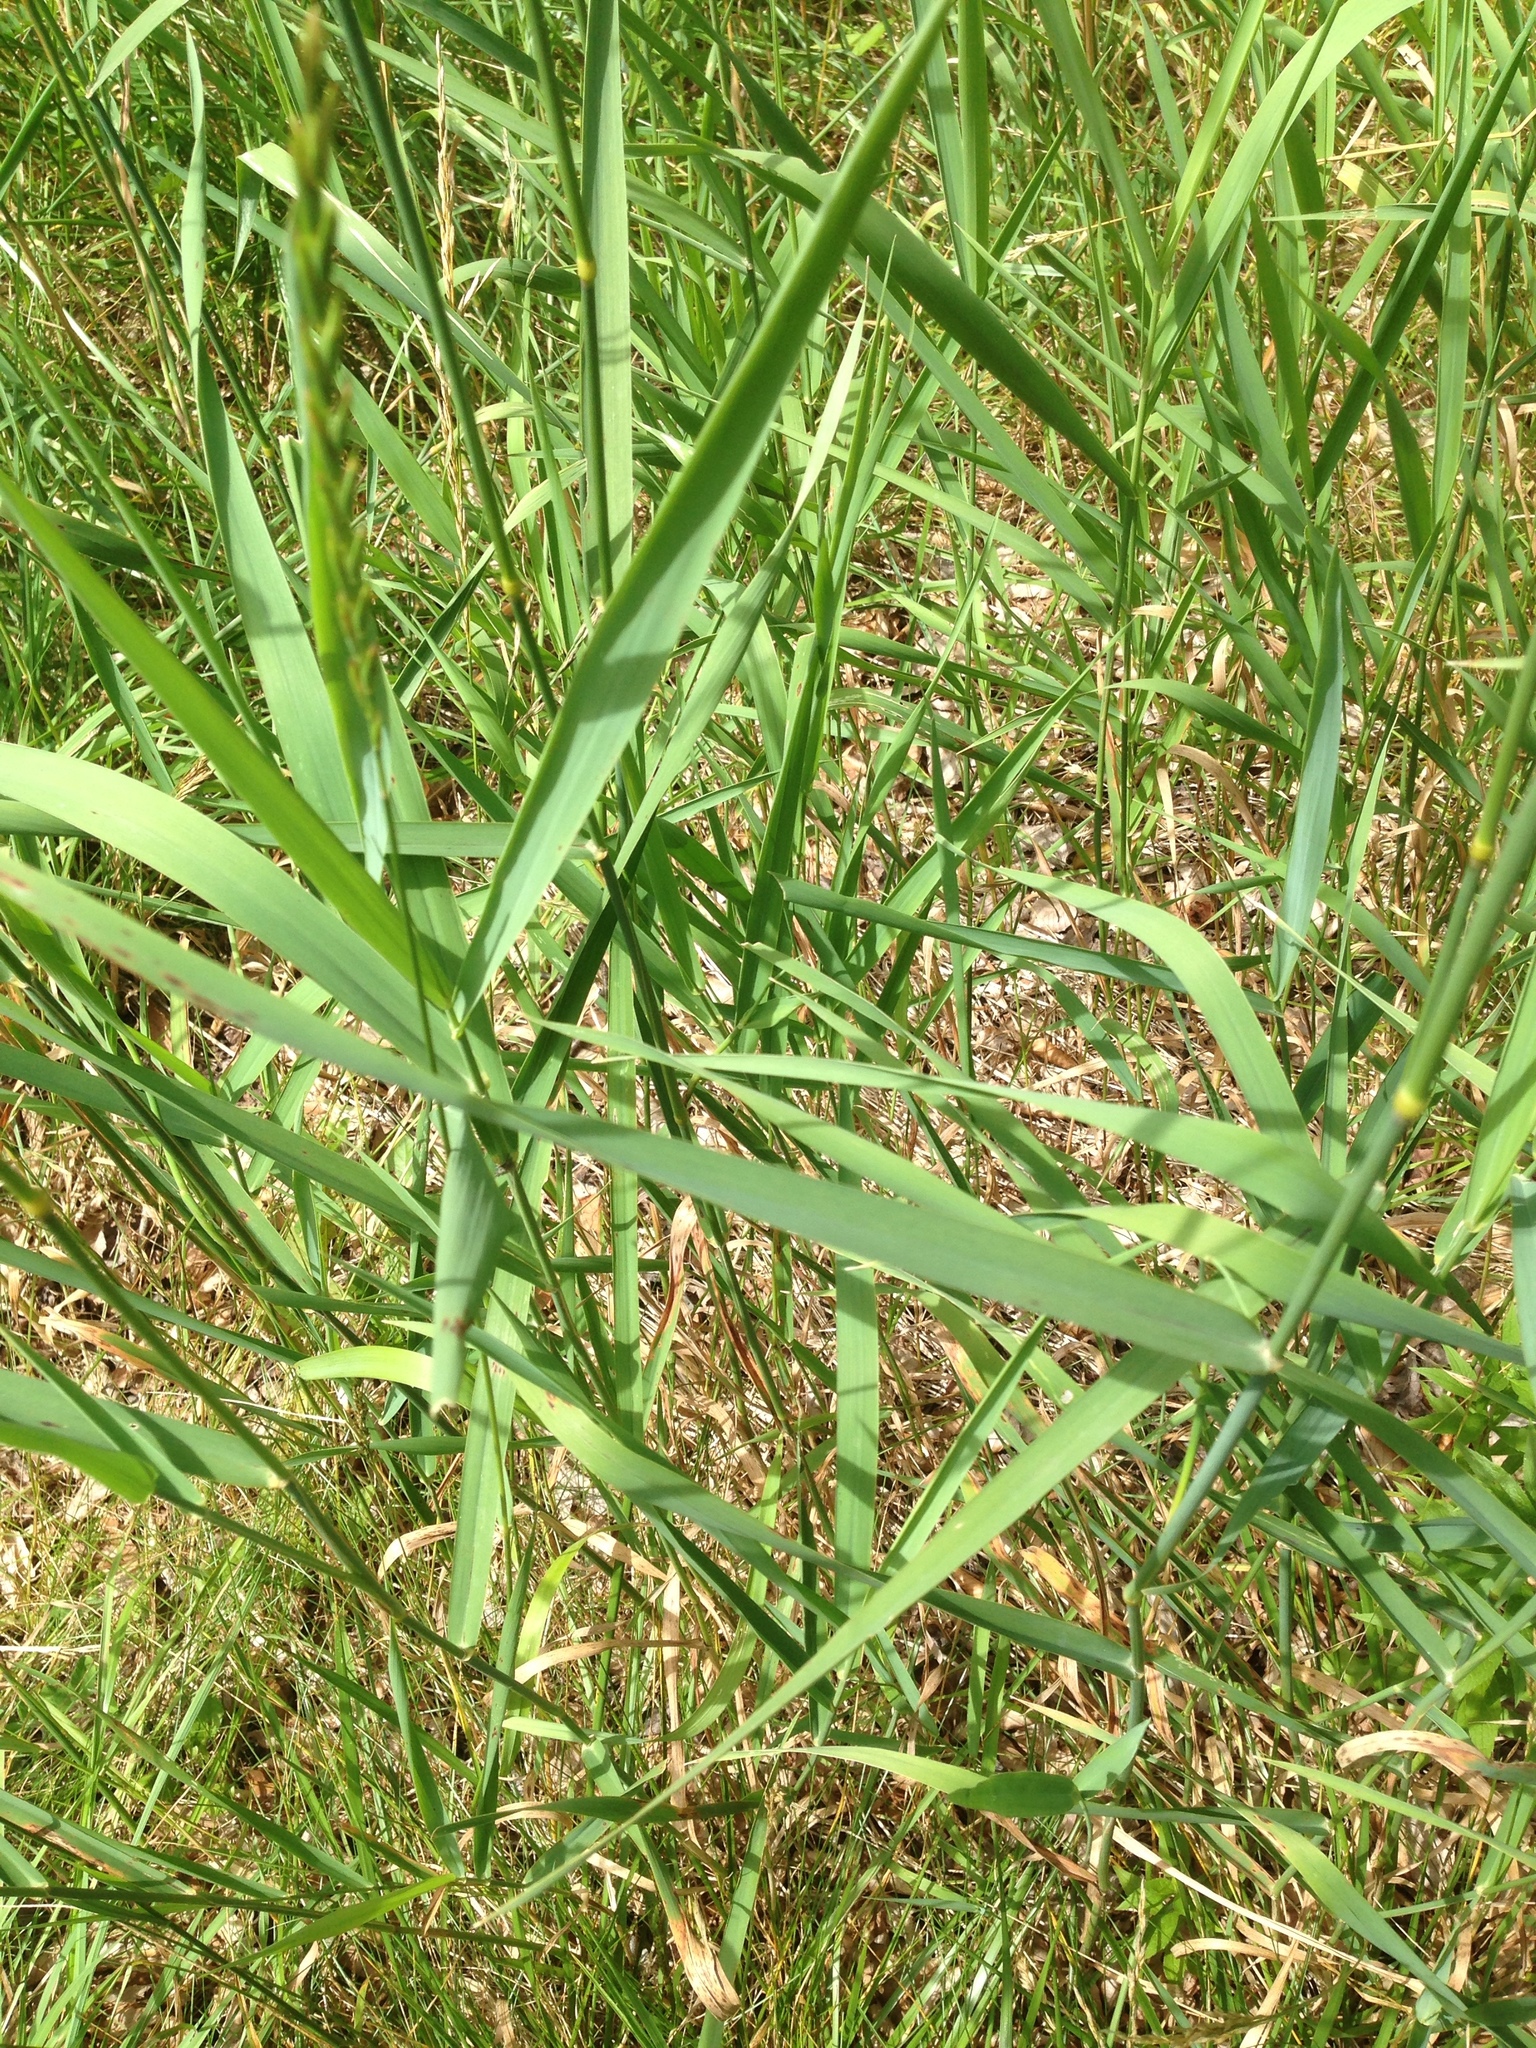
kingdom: Plantae
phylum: Tracheophyta
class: Liliopsida
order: Poales
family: Poaceae
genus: Phalaris
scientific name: Phalaris arundinacea
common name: Reed canary-grass
